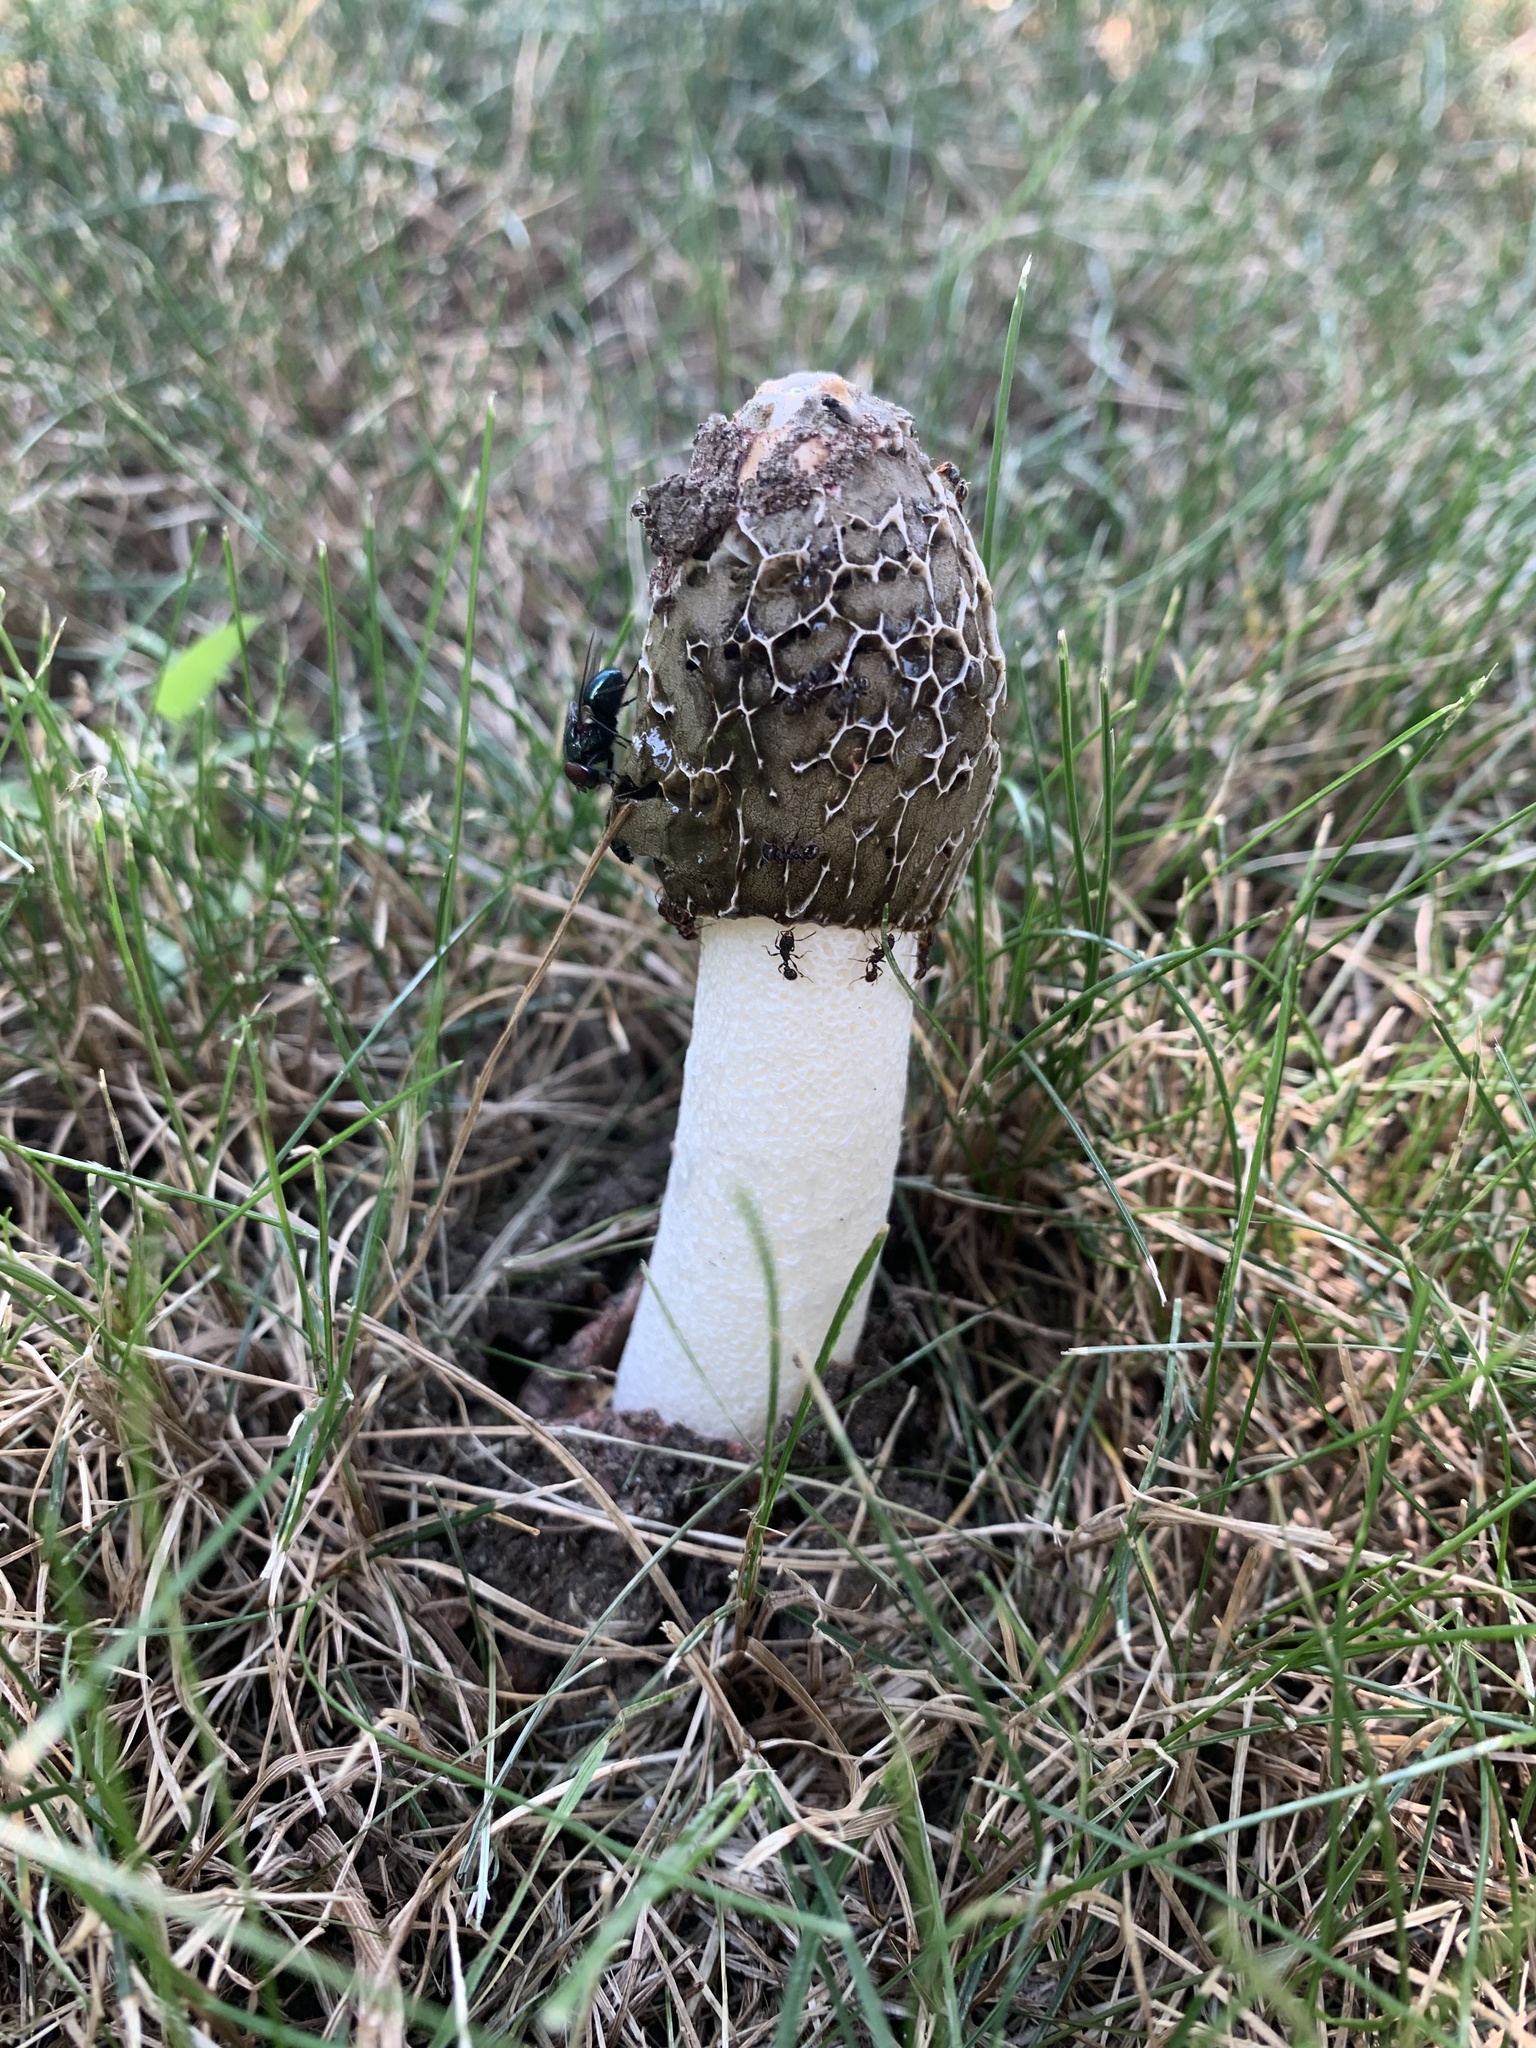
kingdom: Fungi
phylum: Basidiomycota
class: Agaricomycetes
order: Phallales
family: Phallaceae
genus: Phallus
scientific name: Phallus hadriani
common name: Sand stinkhorn
